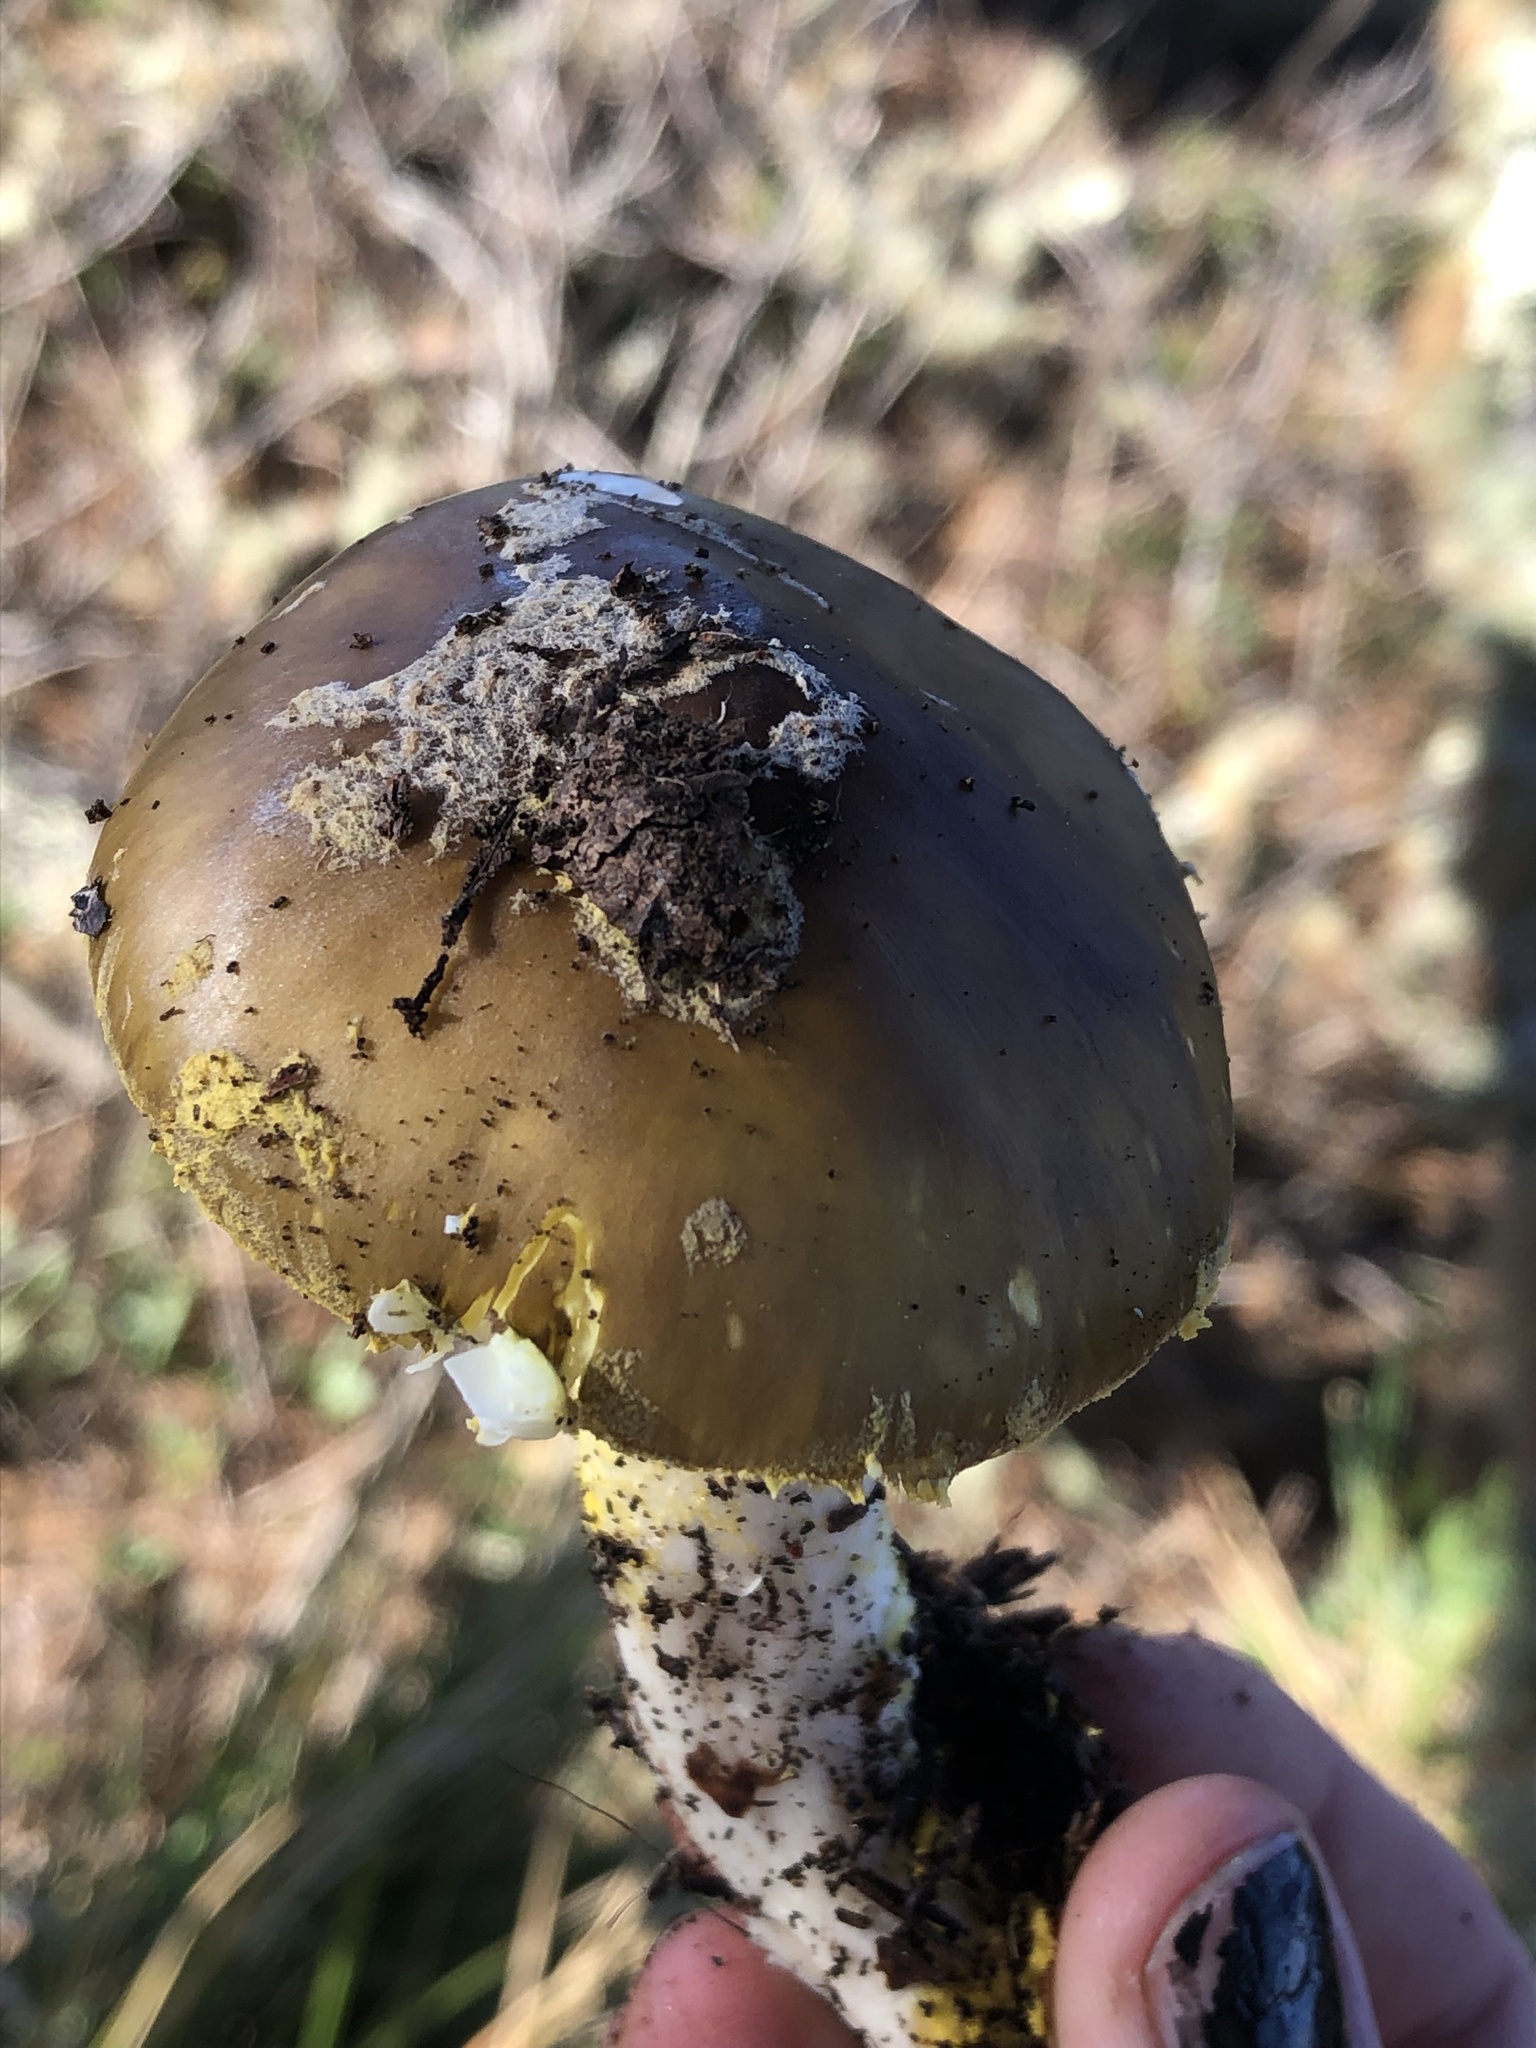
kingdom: Fungi
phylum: Basidiomycota
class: Agaricomycetes
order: Agaricales
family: Amanitaceae
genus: Amanita
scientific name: Amanita augusta
